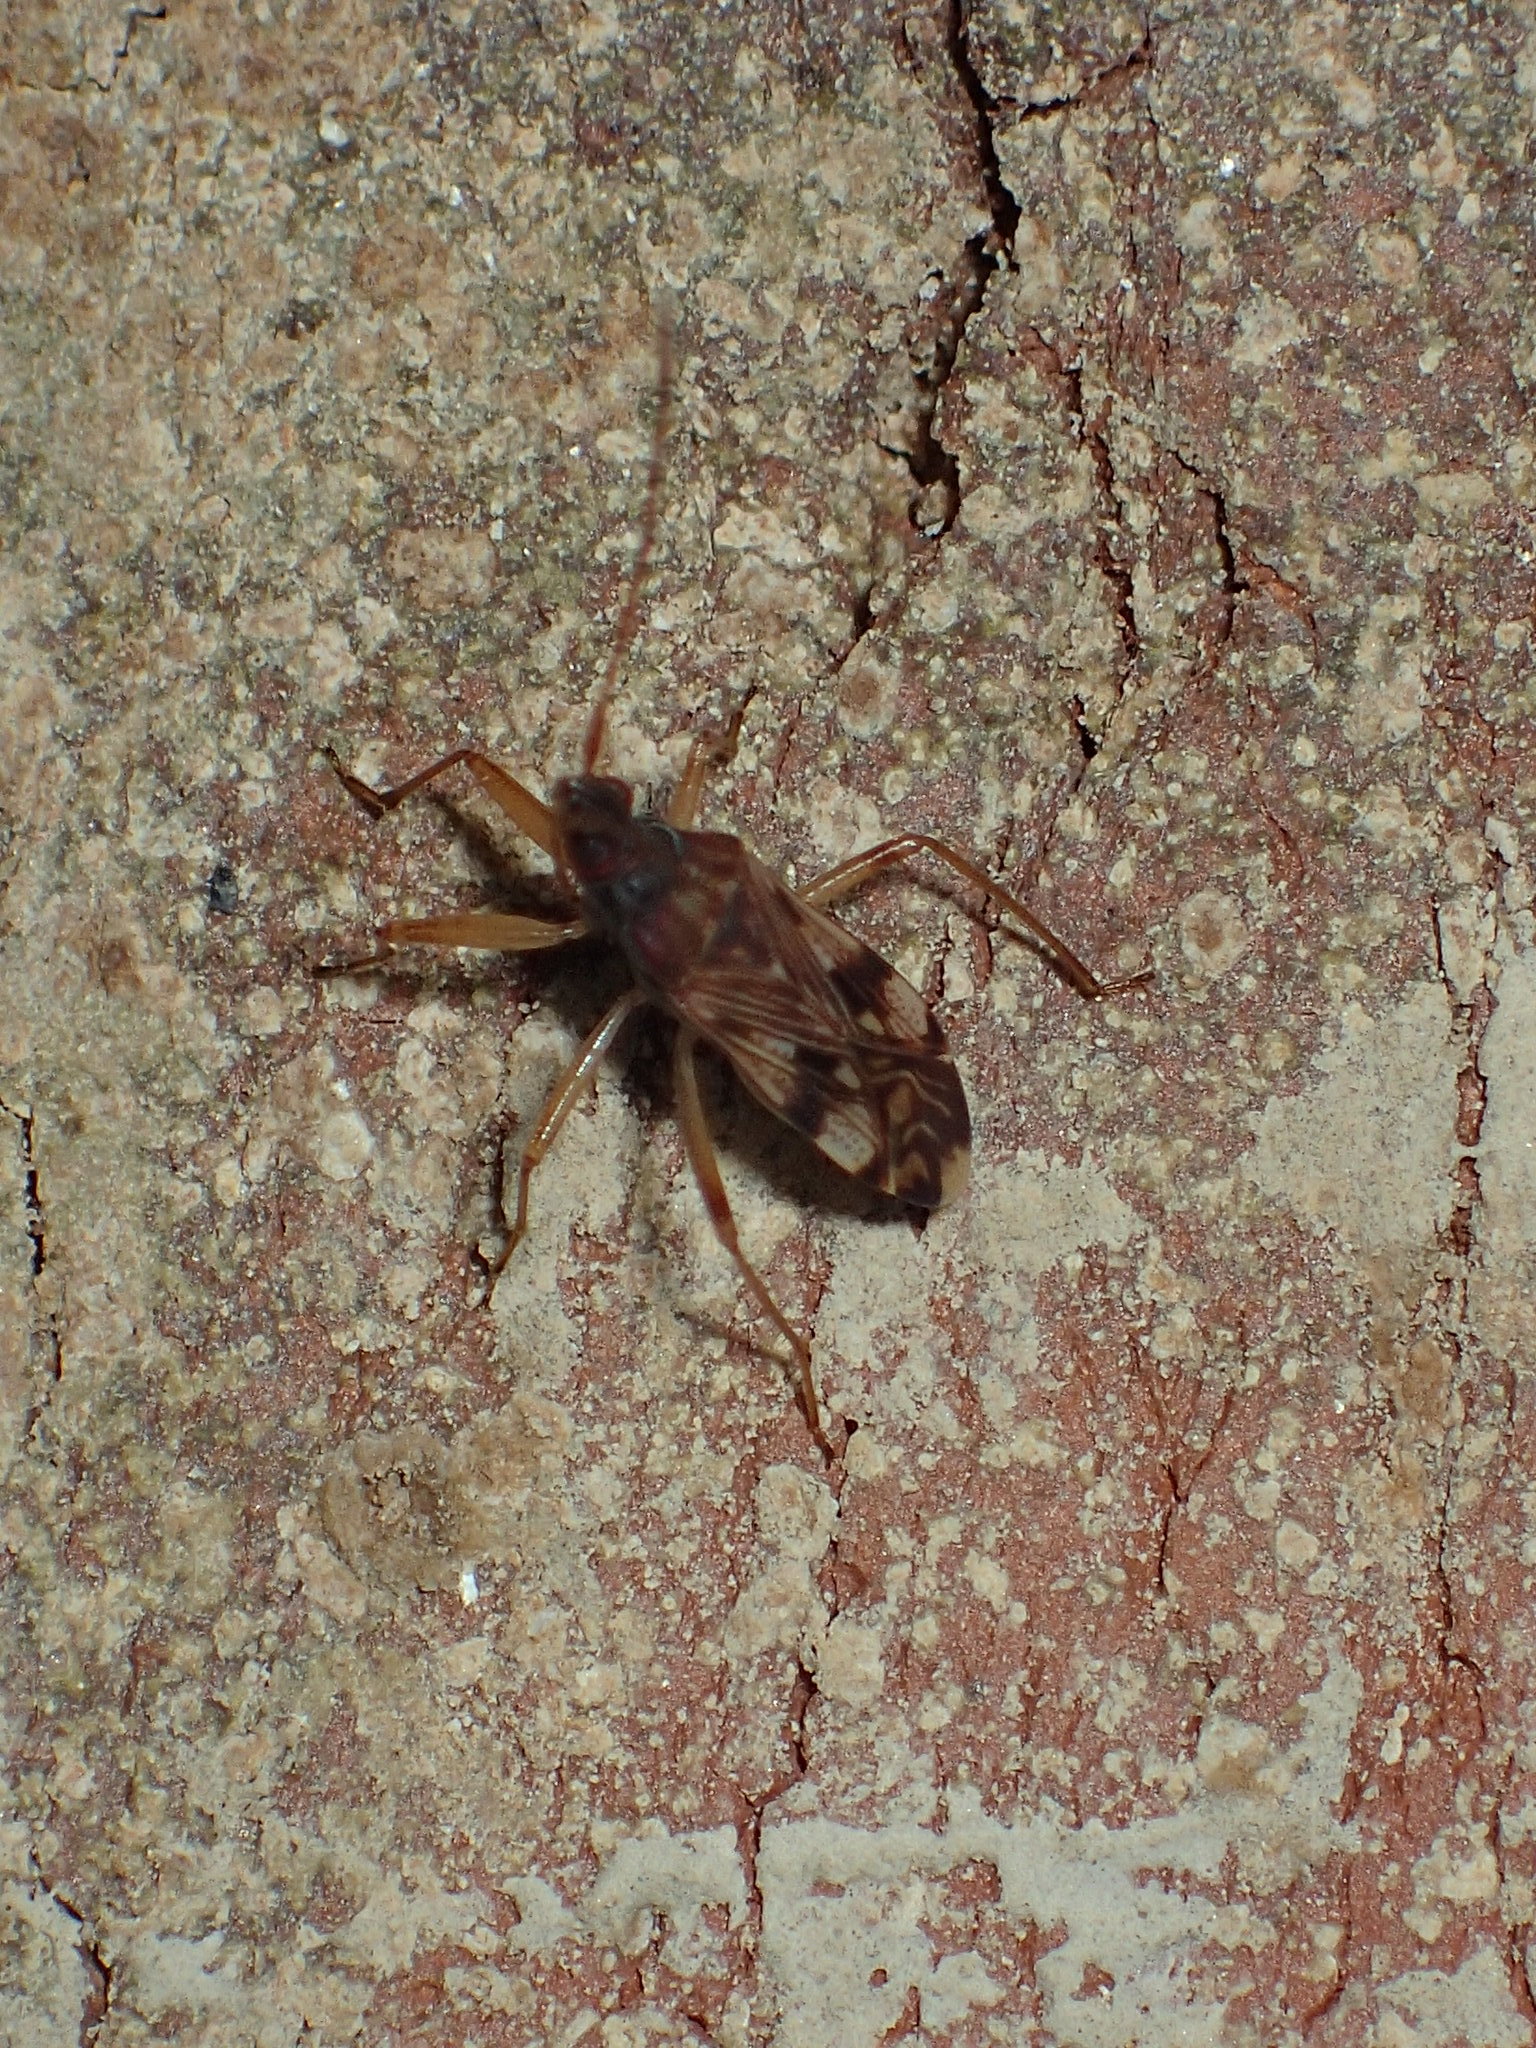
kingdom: Animalia
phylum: Arthropoda
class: Insecta
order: Hemiptera
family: Rhyparochromidae
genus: Ozophora
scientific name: Ozophora picturata
